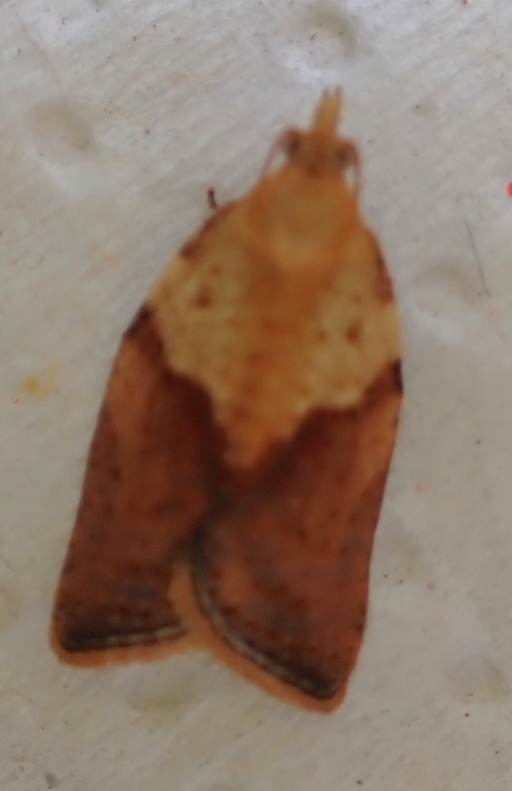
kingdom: Animalia
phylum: Arthropoda
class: Insecta
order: Lepidoptera
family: Tortricidae
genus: Epiphyas
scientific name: Epiphyas postvittana
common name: Light brown apple moth
